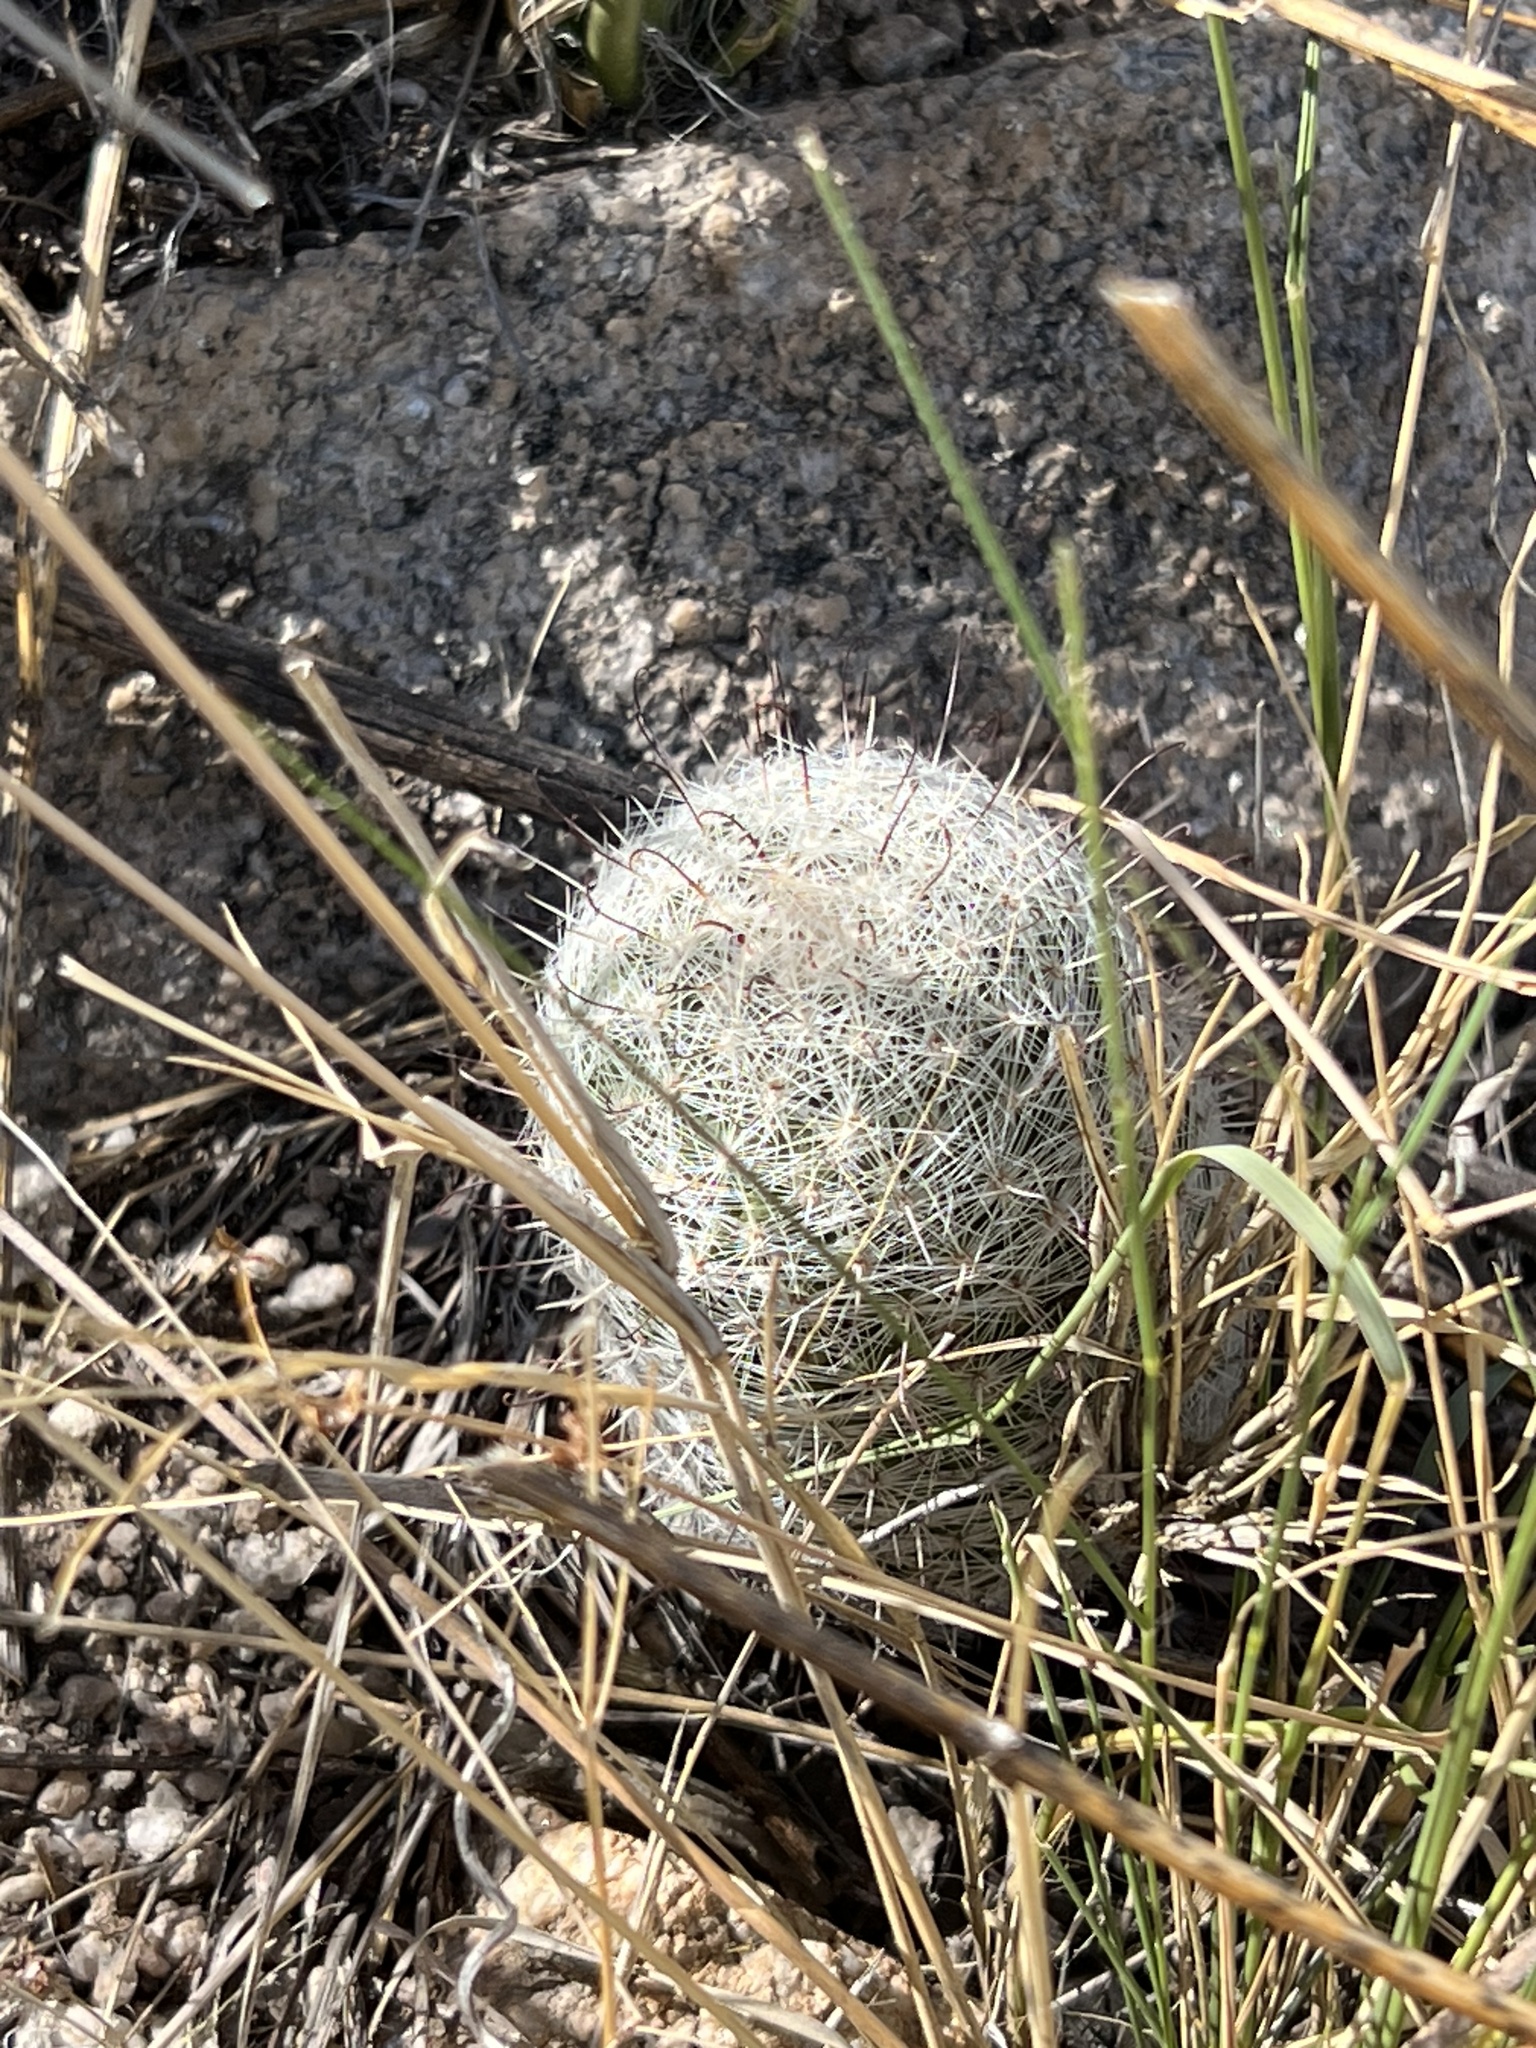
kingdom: Plantae
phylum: Tracheophyta
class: Magnoliopsida
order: Caryophyllales
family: Cactaceae
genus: Cochemiea
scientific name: Cochemiea grahamii
